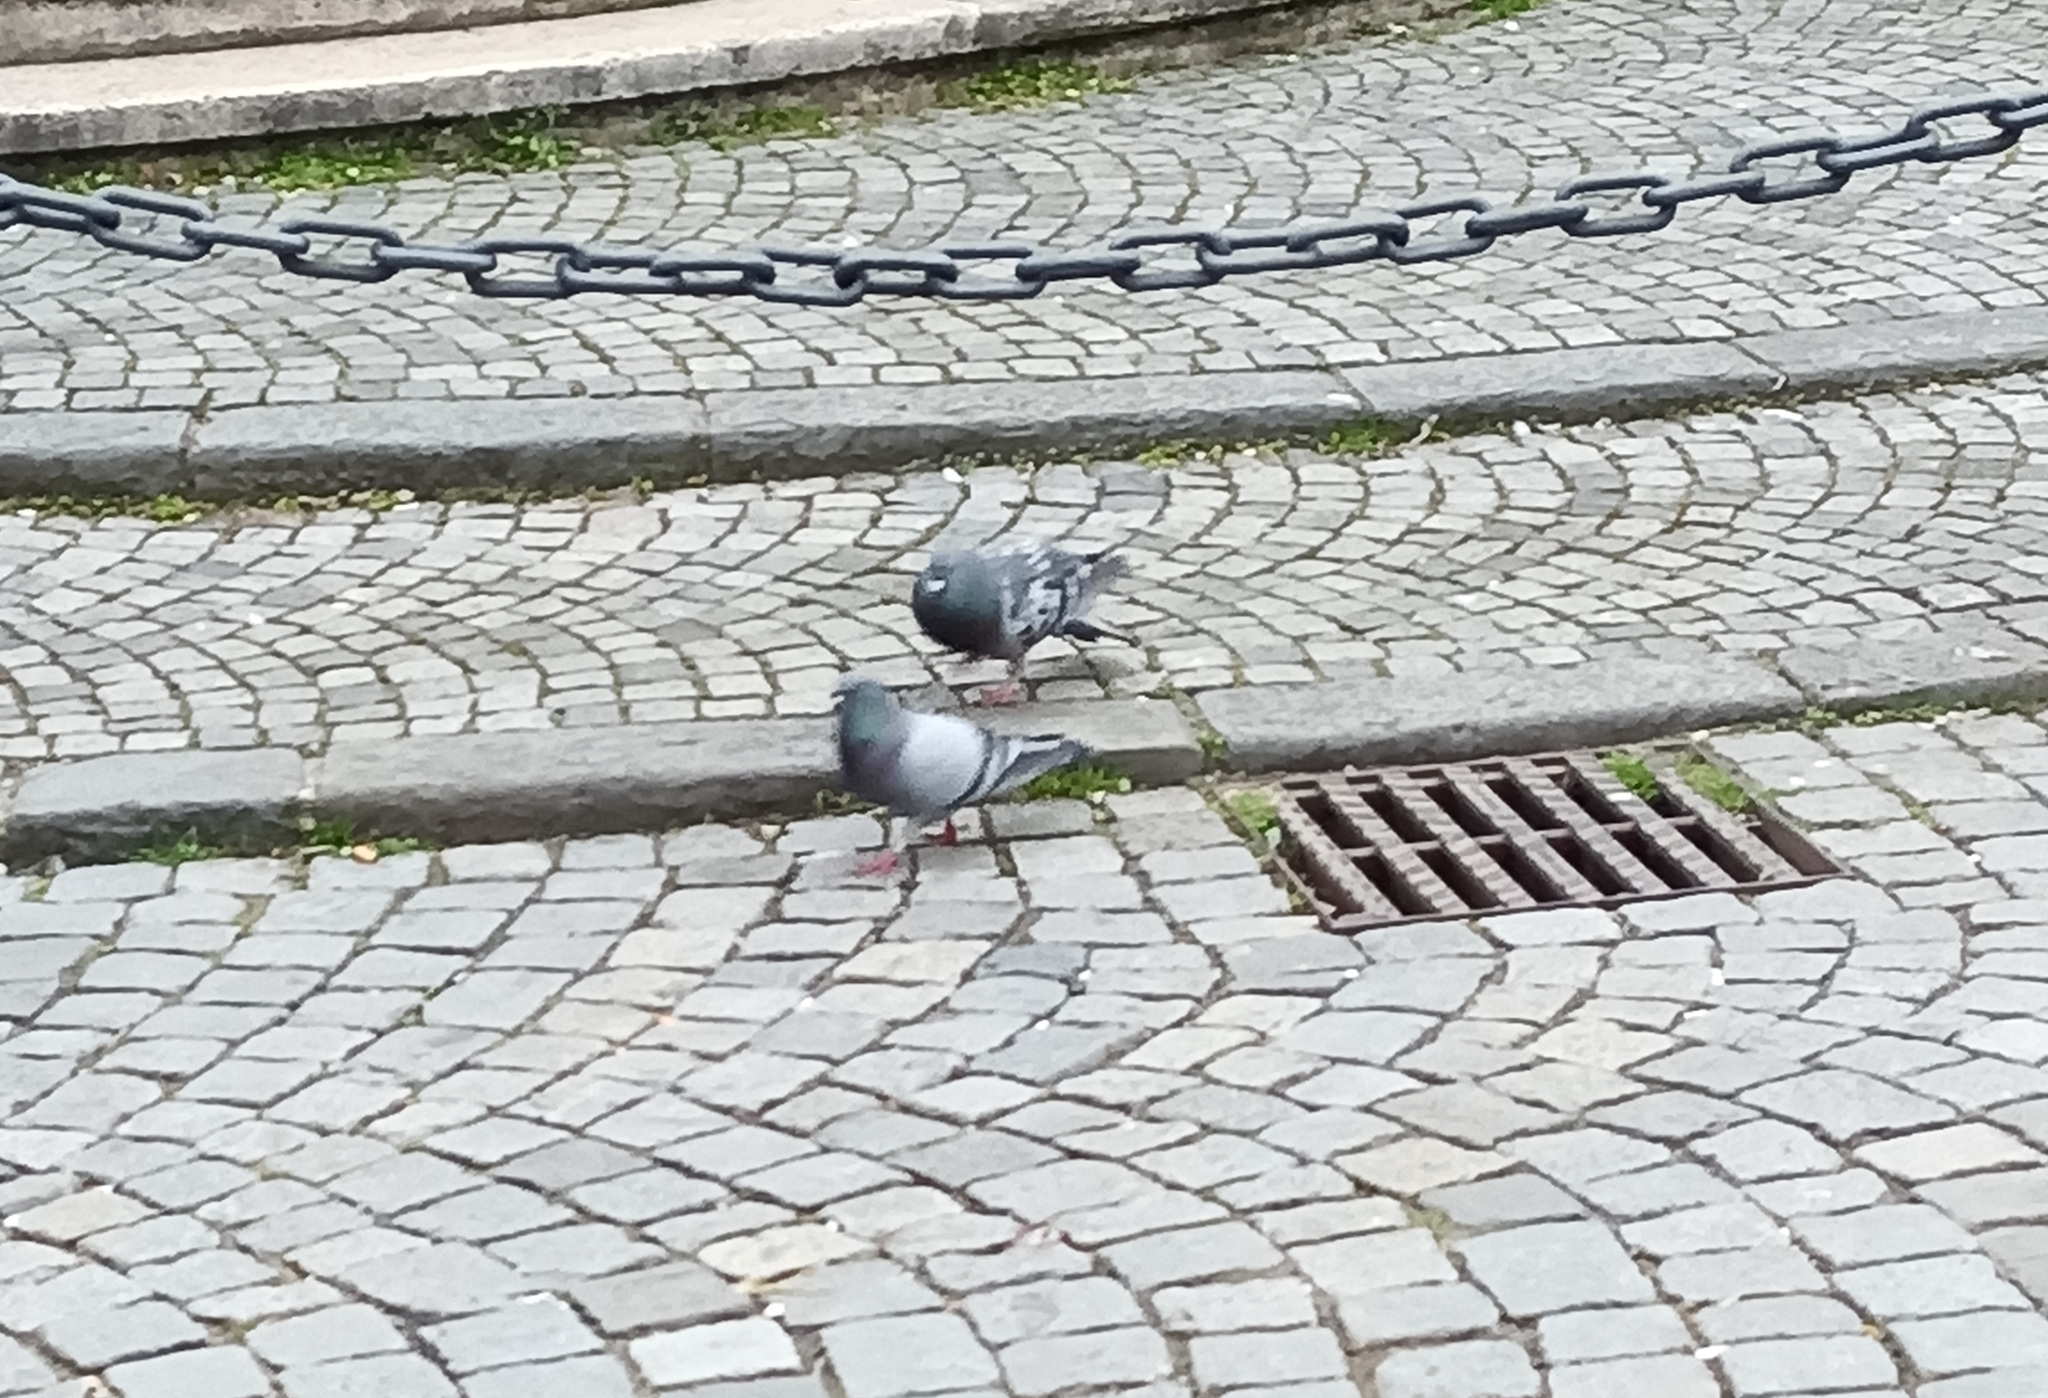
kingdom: Animalia
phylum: Chordata
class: Aves
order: Columbiformes
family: Columbidae
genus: Columba
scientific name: Columba livia
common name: Rock pigeon
